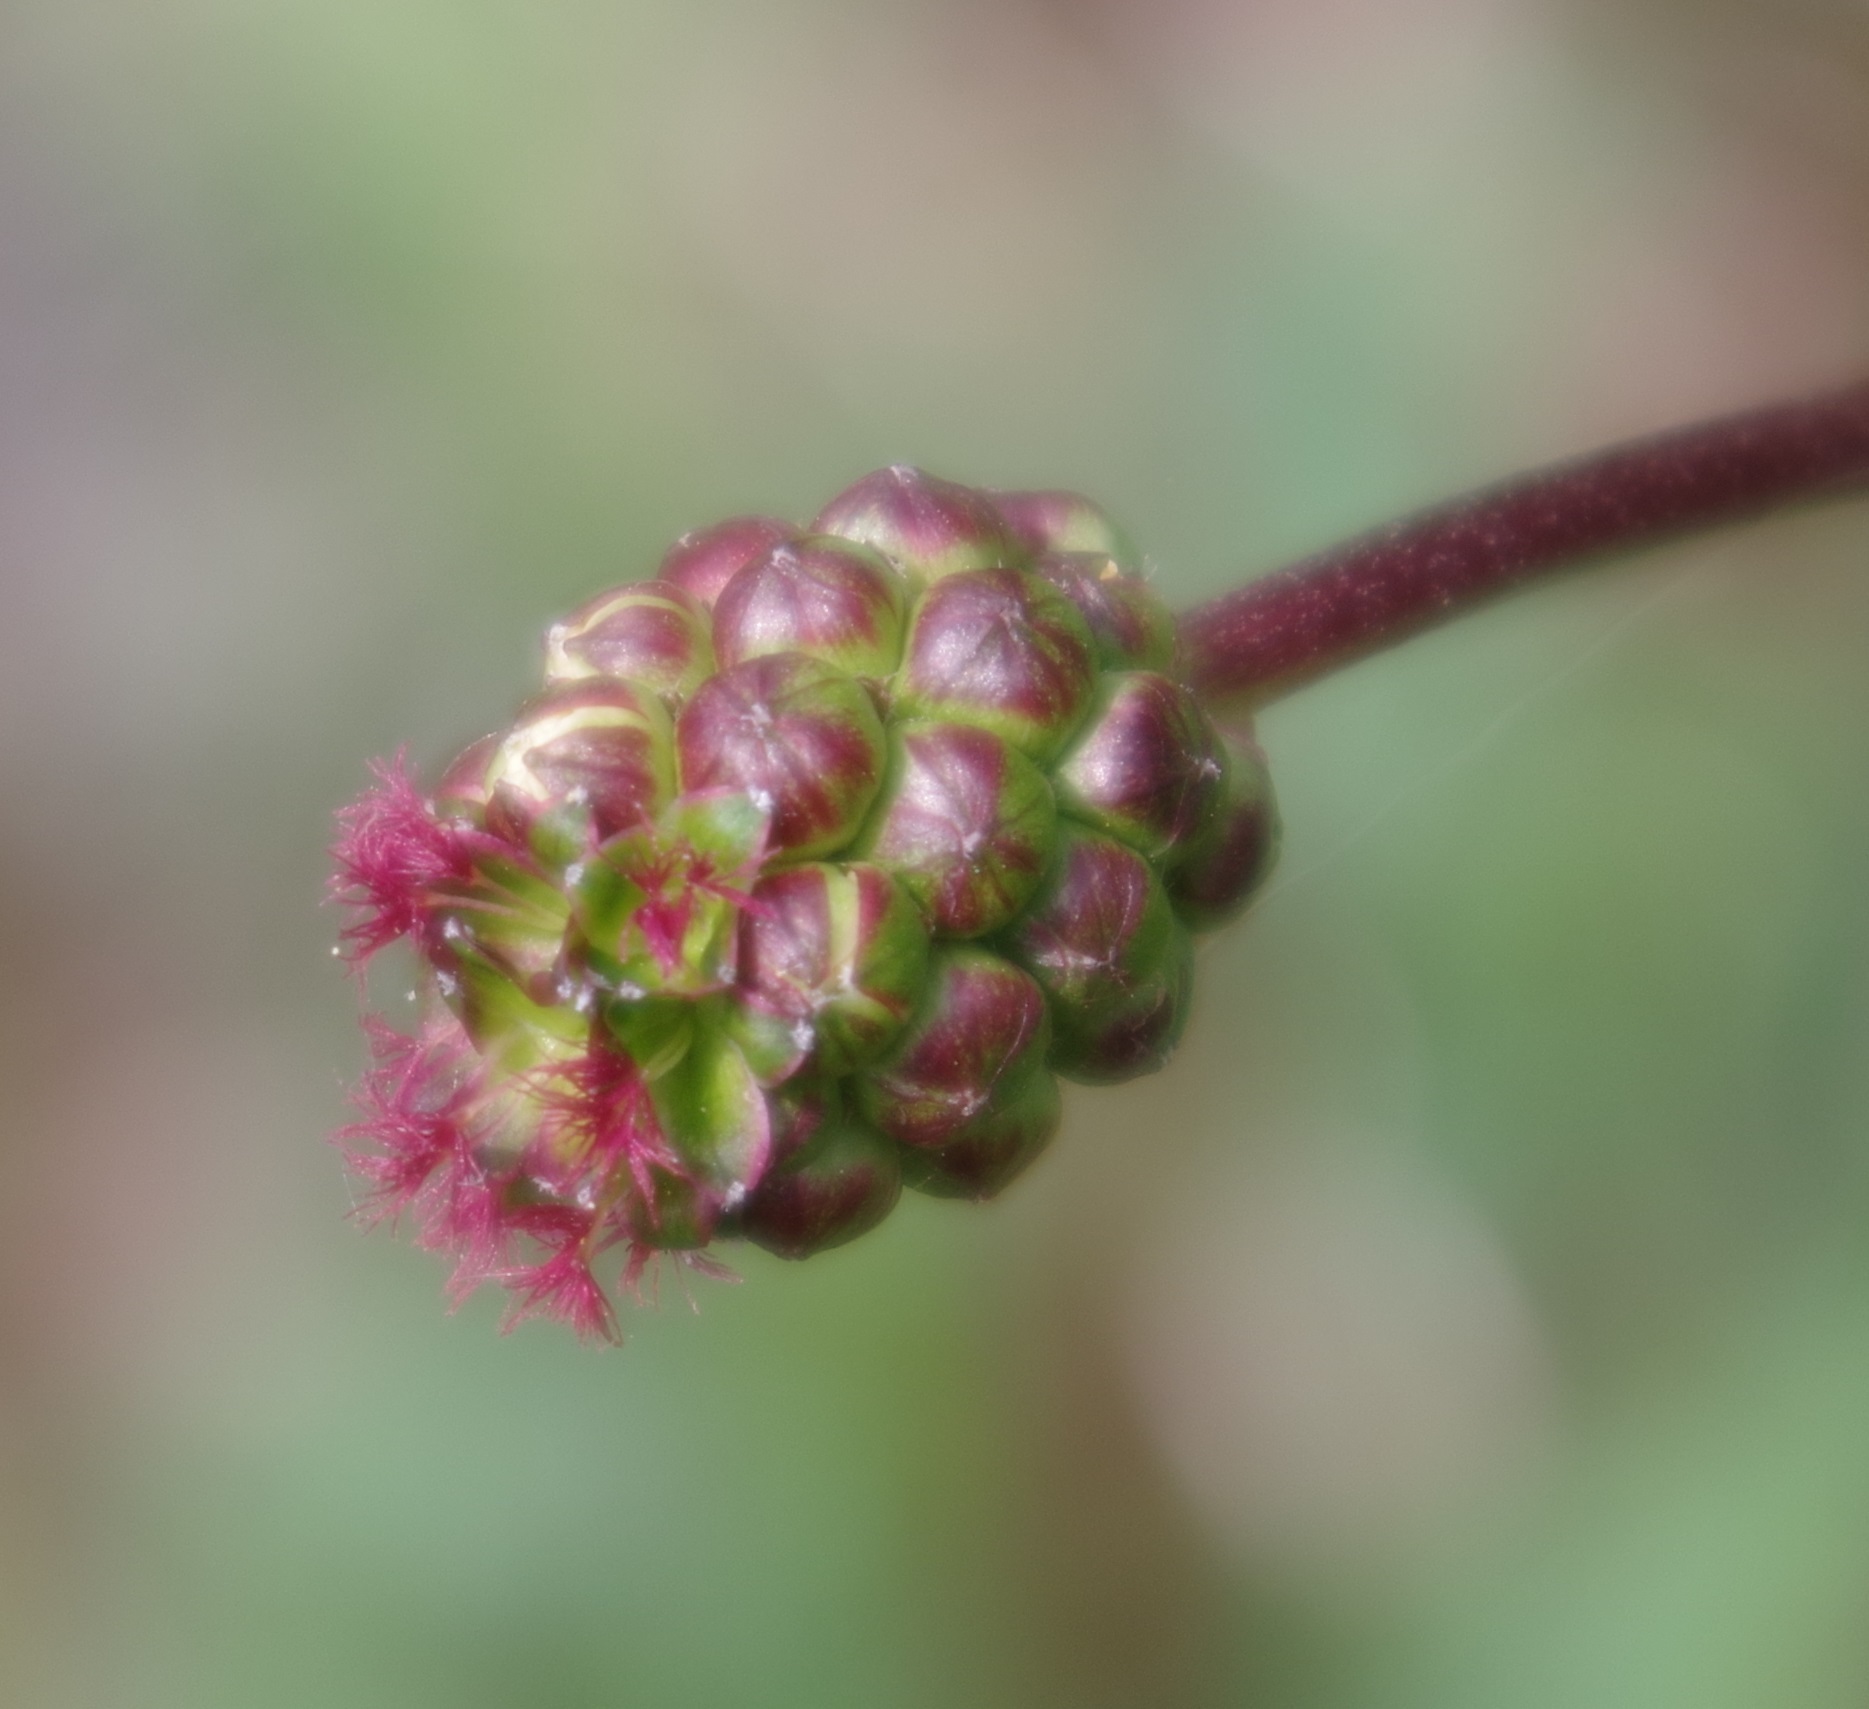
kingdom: Plantae
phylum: Tracheophyta
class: Magnoliopsida
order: Rosales
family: Rosaceae
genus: Poterium
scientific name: Poterium sanguisorba
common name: Salad burnet
